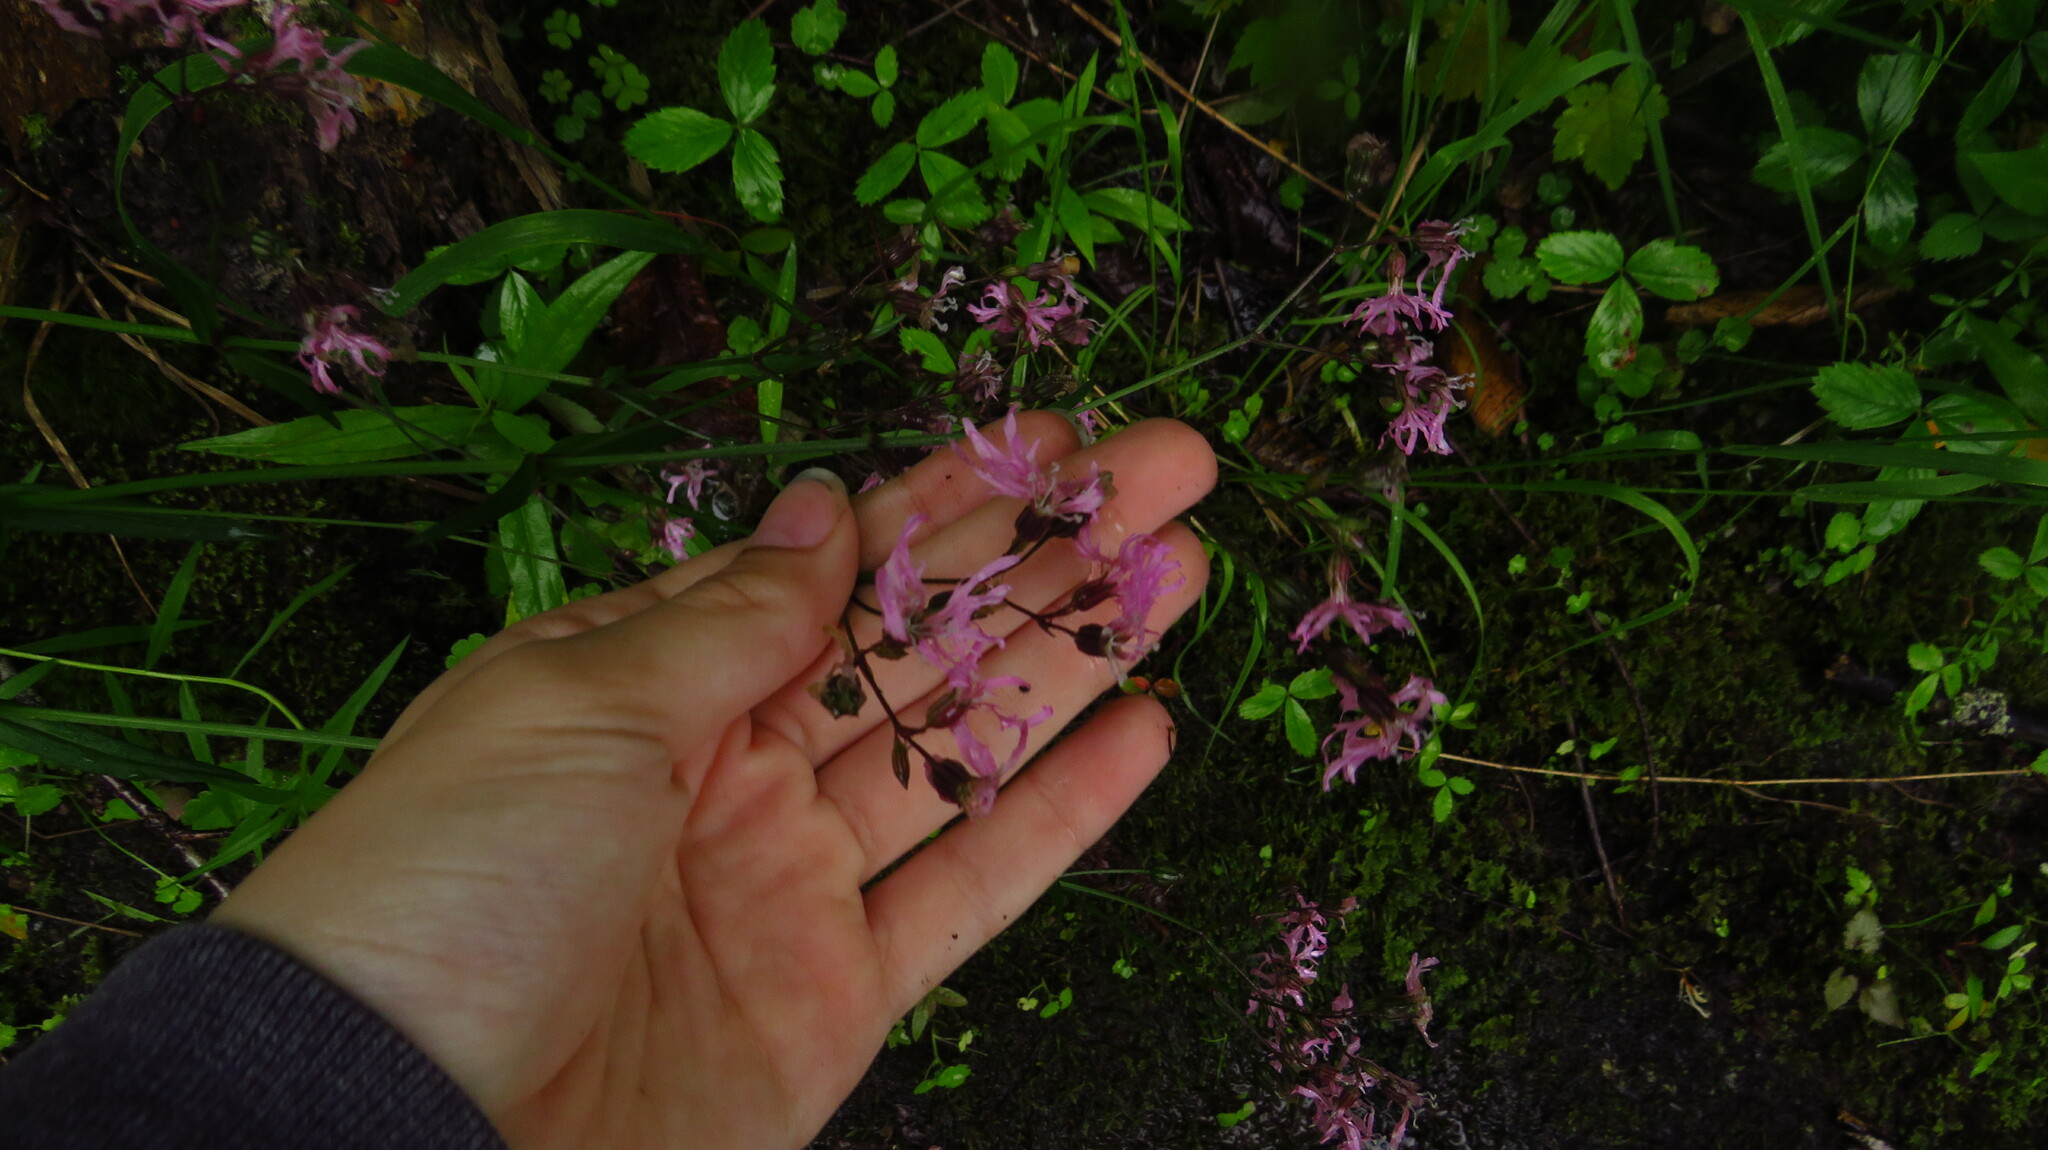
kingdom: Plantae
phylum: Tracheophyta
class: Magnoliopsida
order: Caryophyllales
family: Caryophyllaceae
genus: Silene
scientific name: Silene flos-cuculi
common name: Ragged-robin
